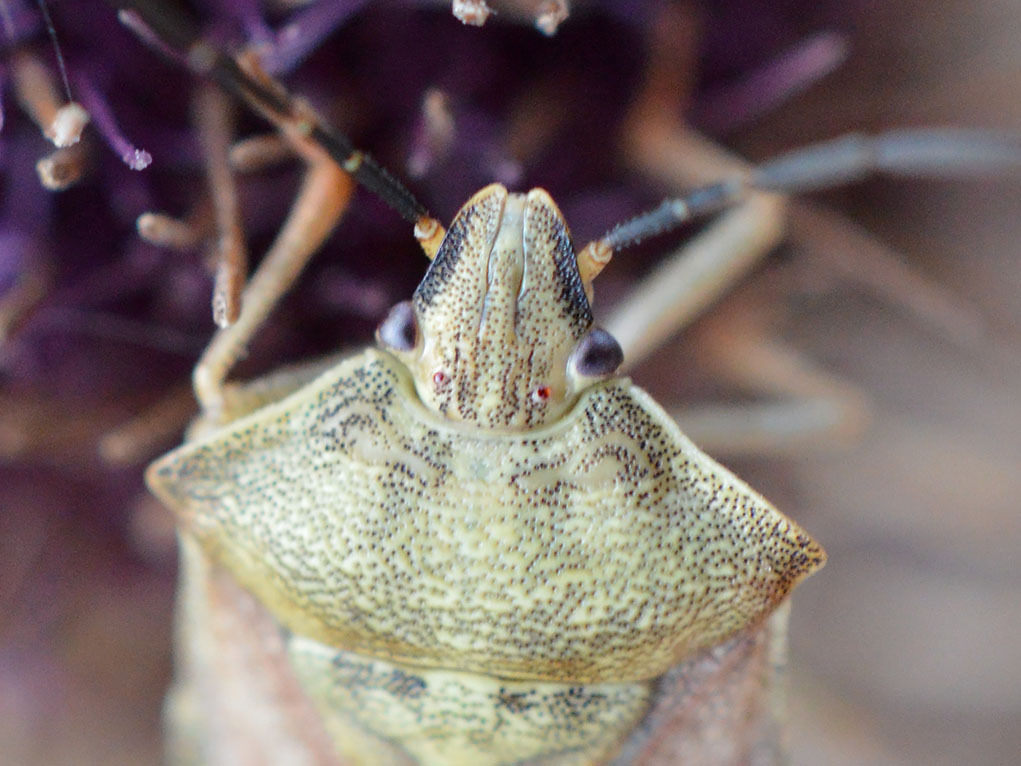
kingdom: Animalia
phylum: Arthropoda
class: Insecta
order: Hemiptera
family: Pentatomidae
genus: Carpocoris
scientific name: Carpocoris purpureipennis
